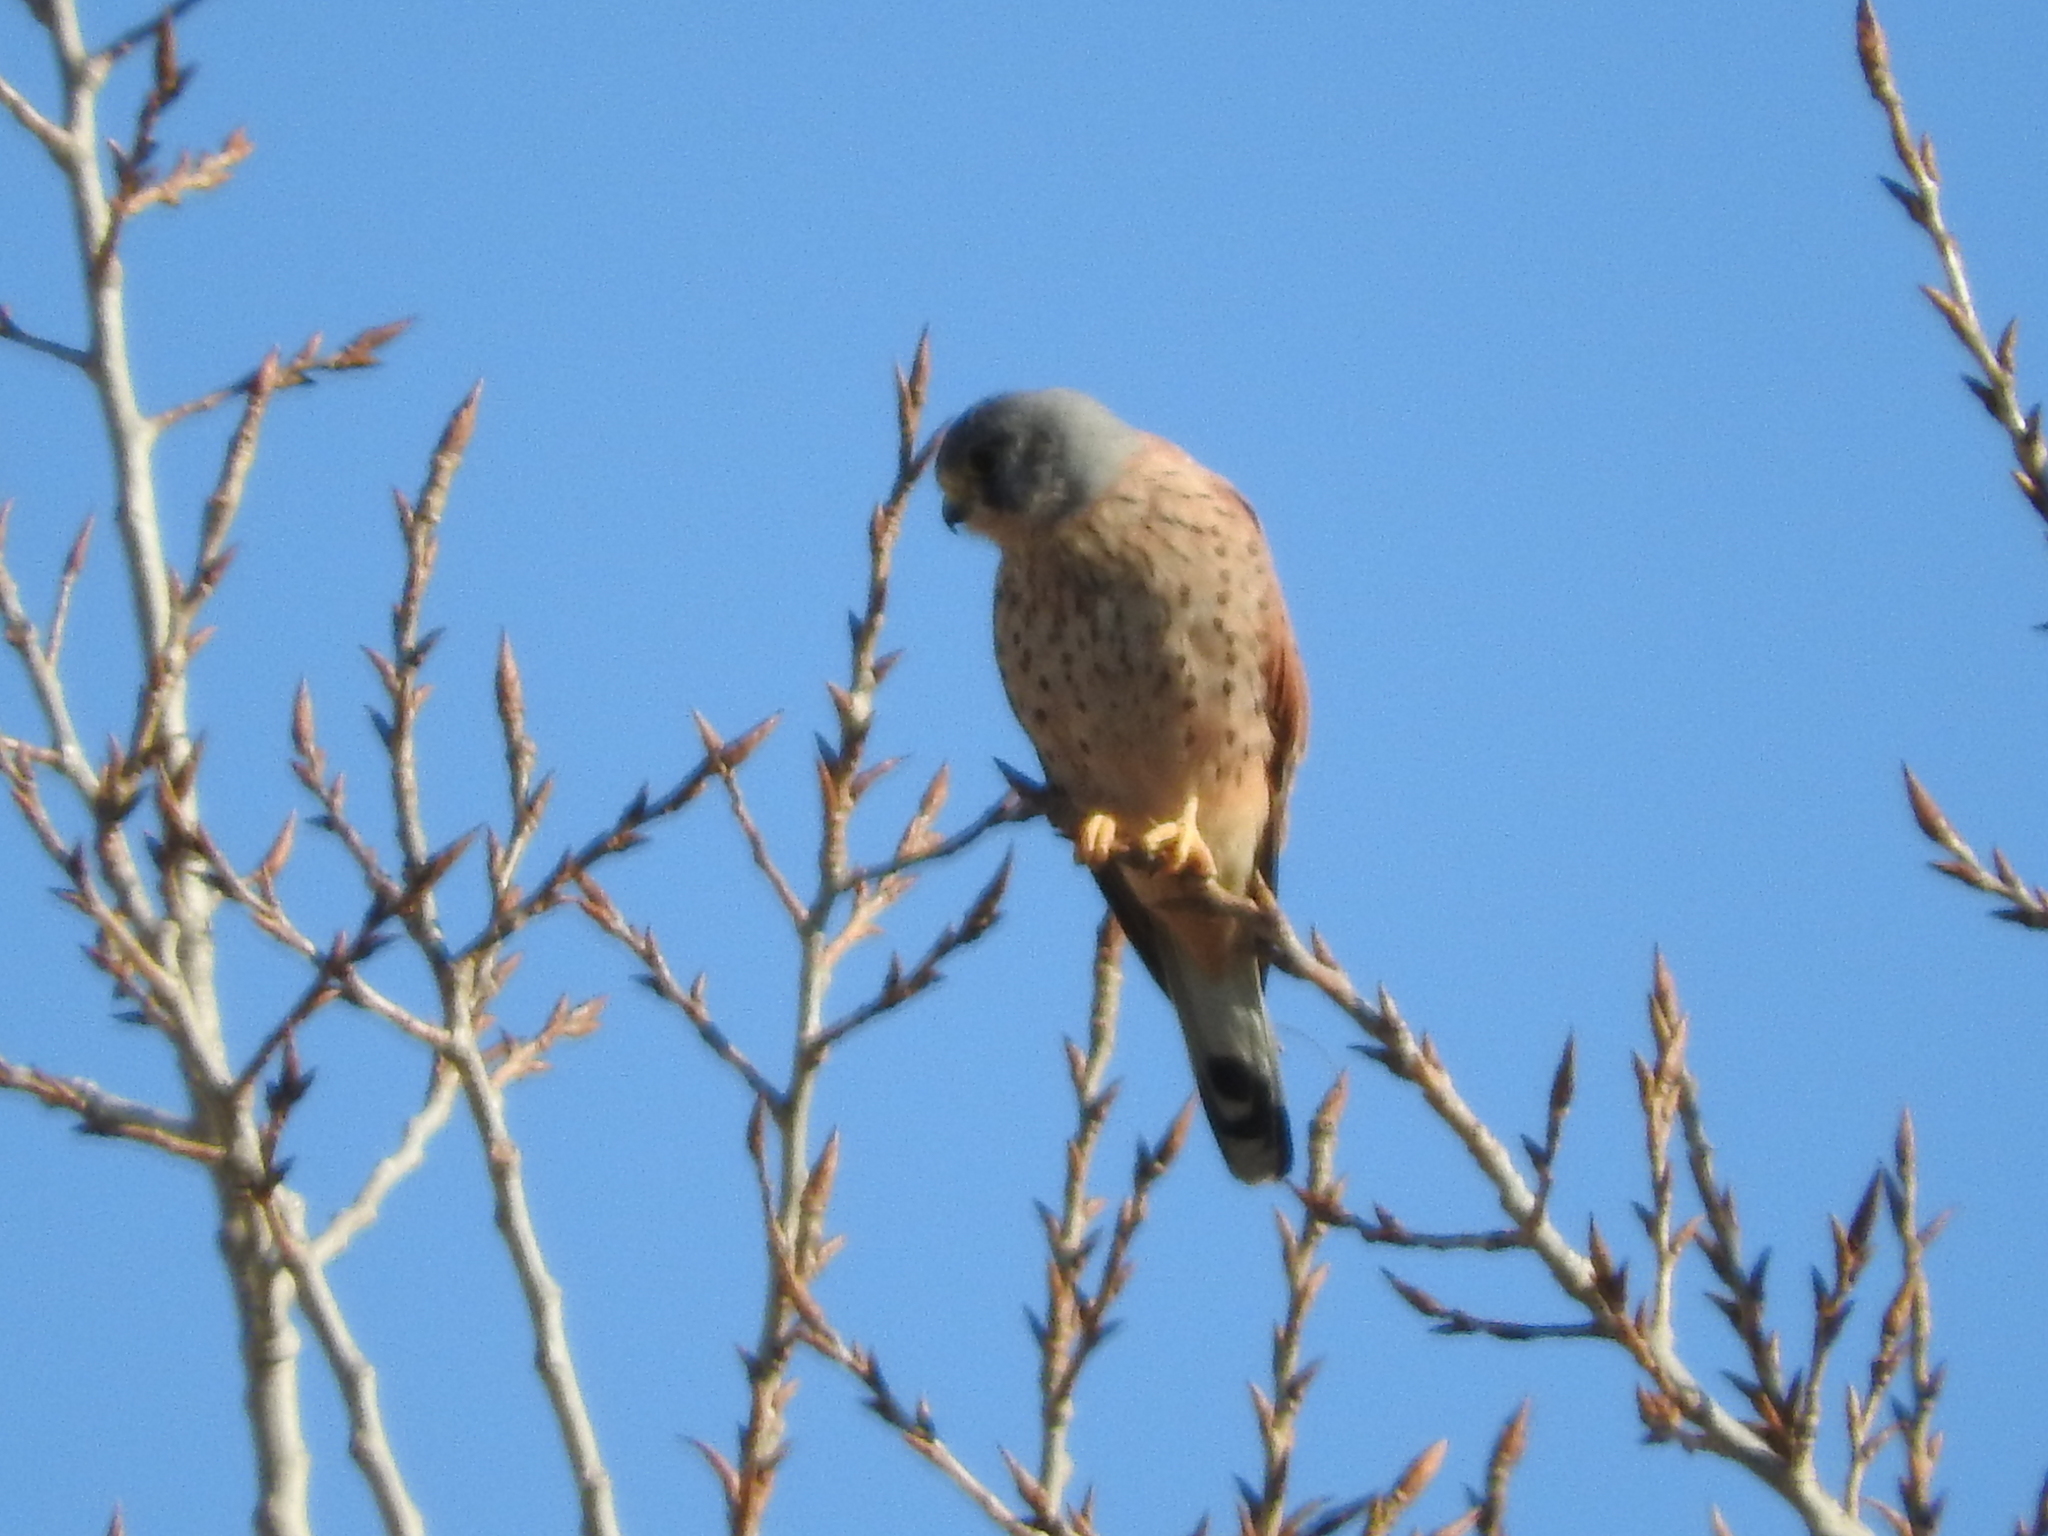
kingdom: Animalia
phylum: Chordata
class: Aves
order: Falconiformes
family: Falconidae
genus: Falco
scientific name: Falco tinnunculus
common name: Common kestrel
